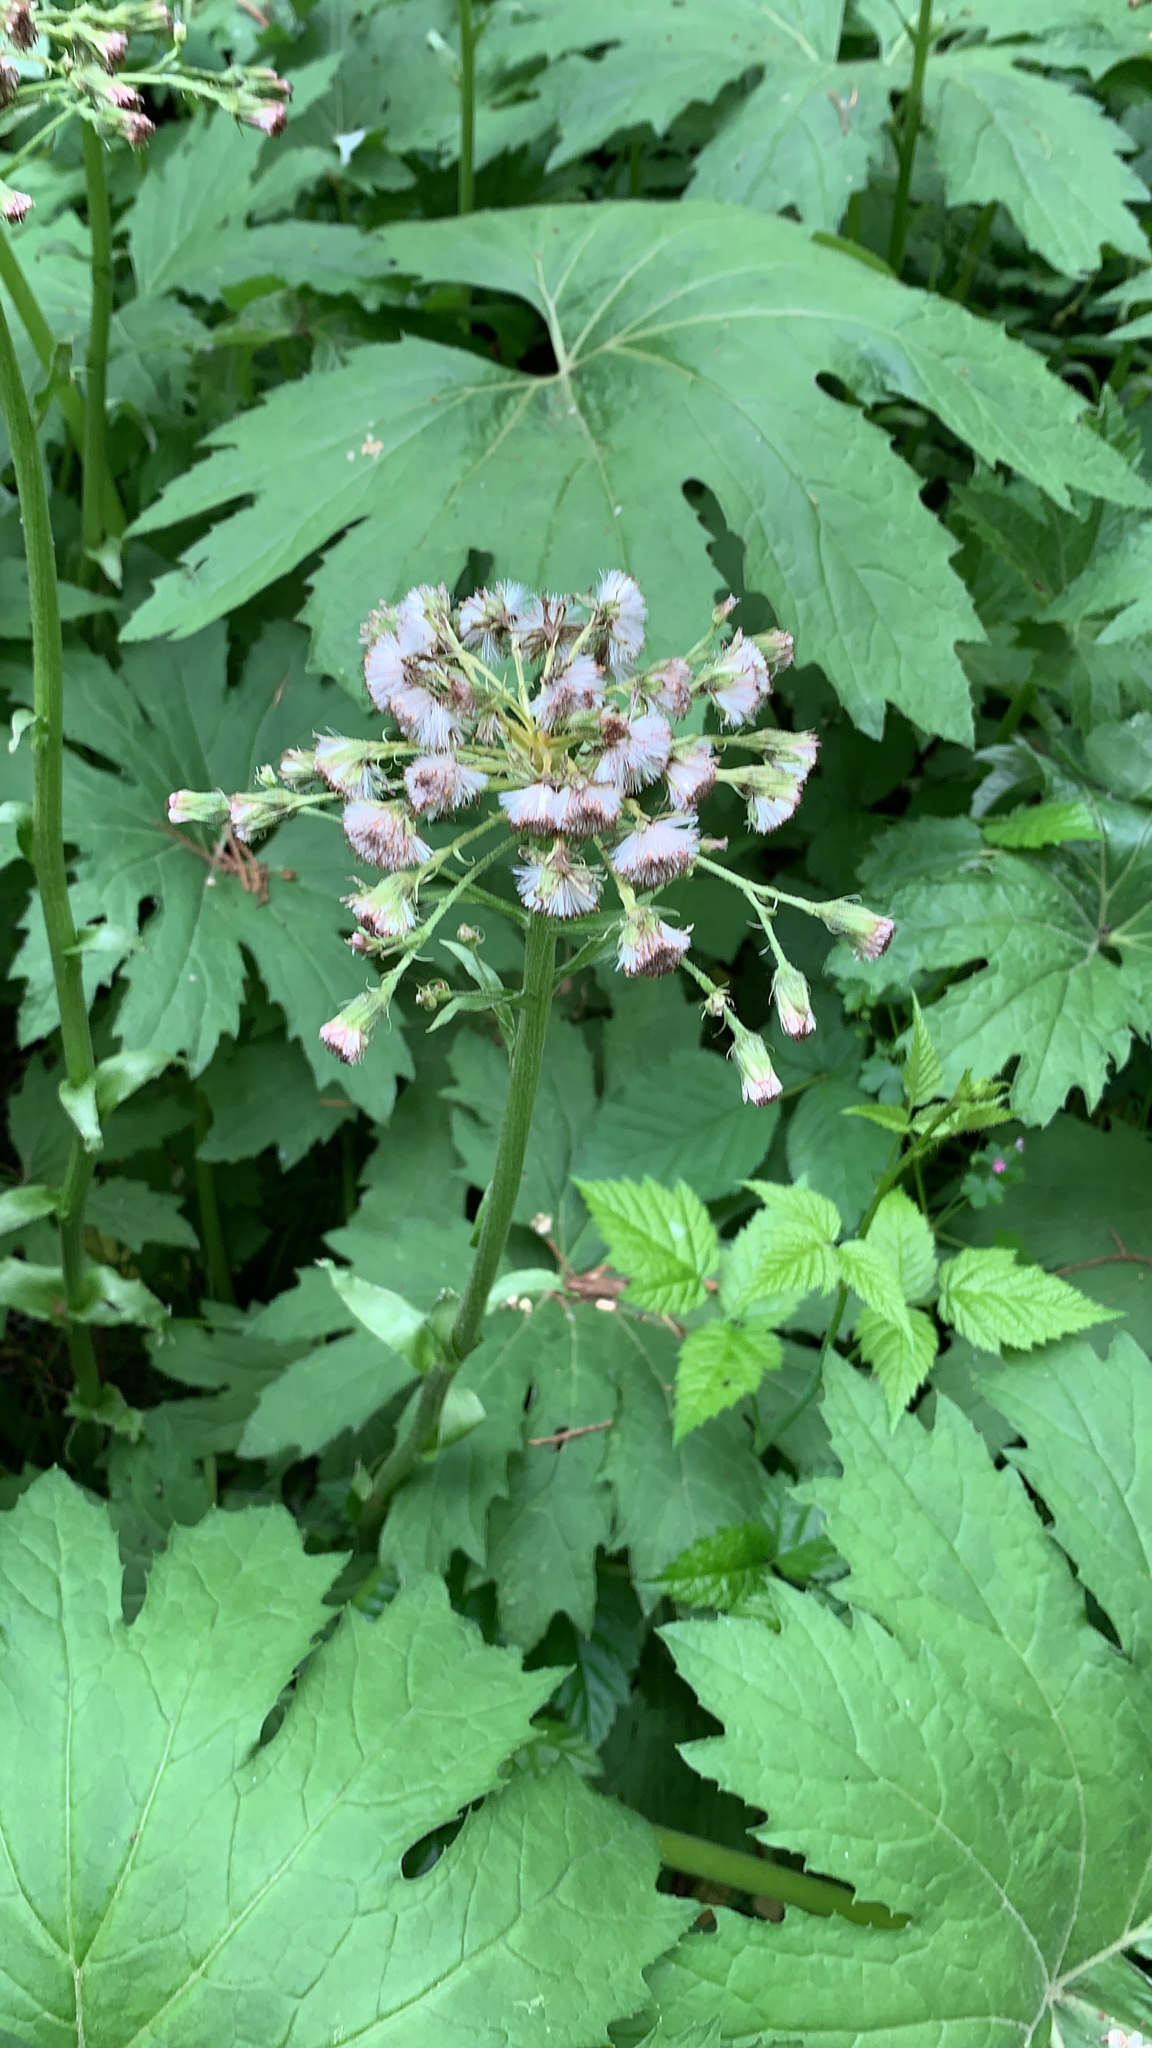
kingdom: Plantae
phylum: Tracheophyta
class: Magnoliopsida
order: Asterales
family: Asteraceae
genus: Petasites
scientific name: Petasites frigidus
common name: Arctic butterbur
